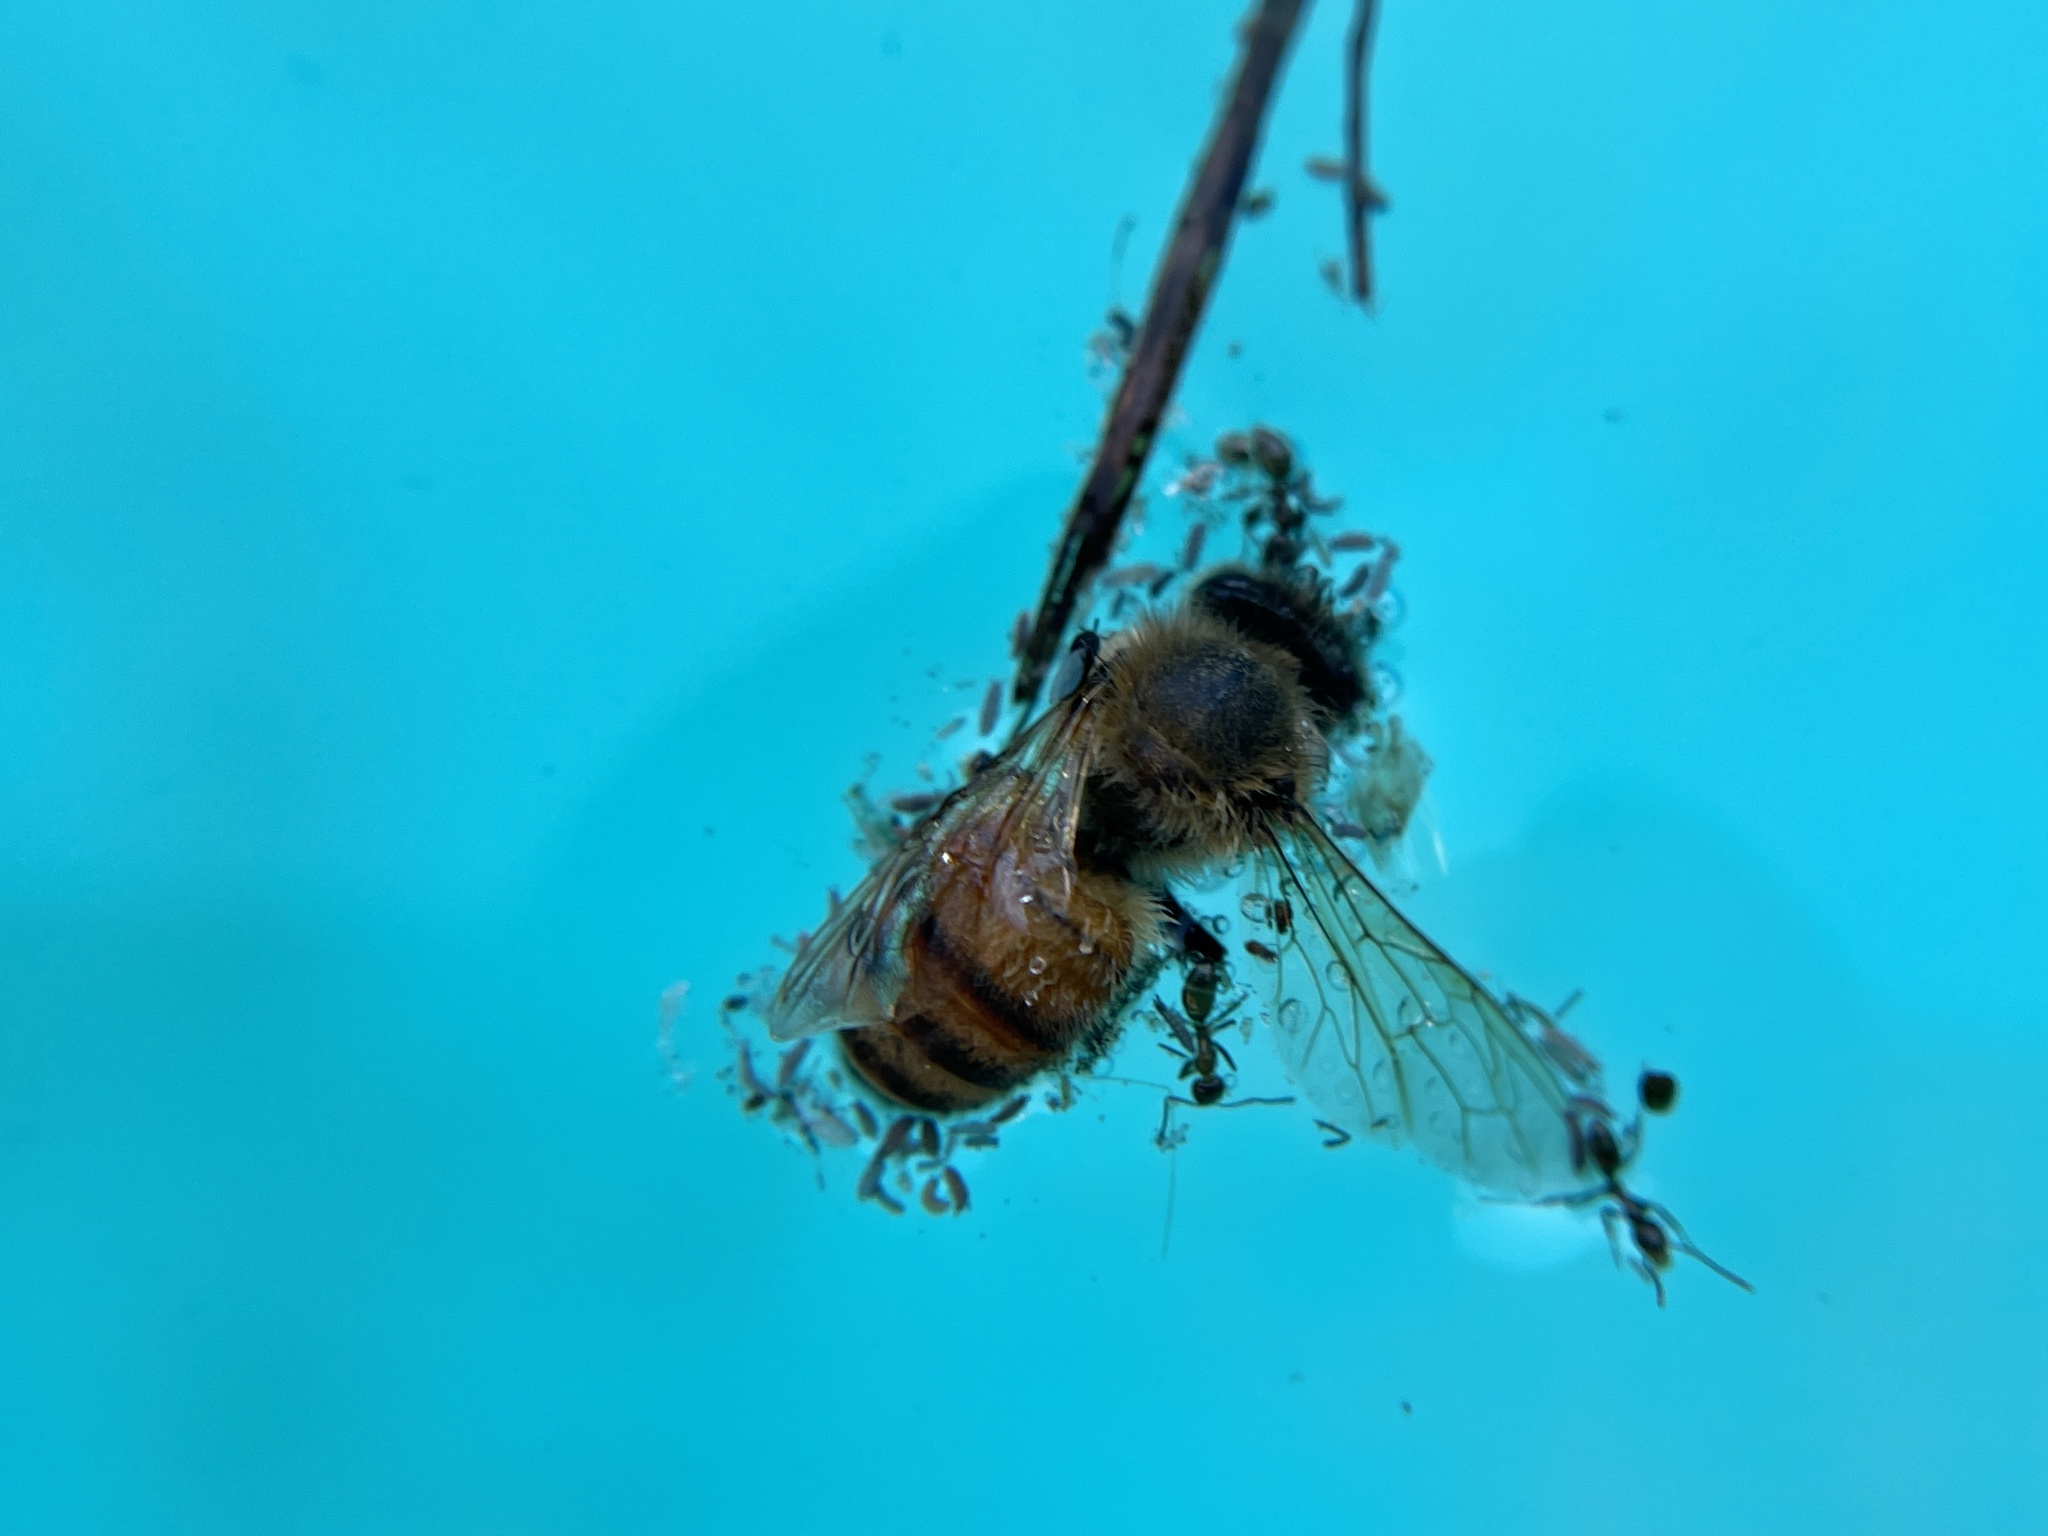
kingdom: Animalia
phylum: Arthropoda
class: Insecta
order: Hymenoptera
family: Apidae
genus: Apis
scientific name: Apis mellifera
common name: Honey bee
